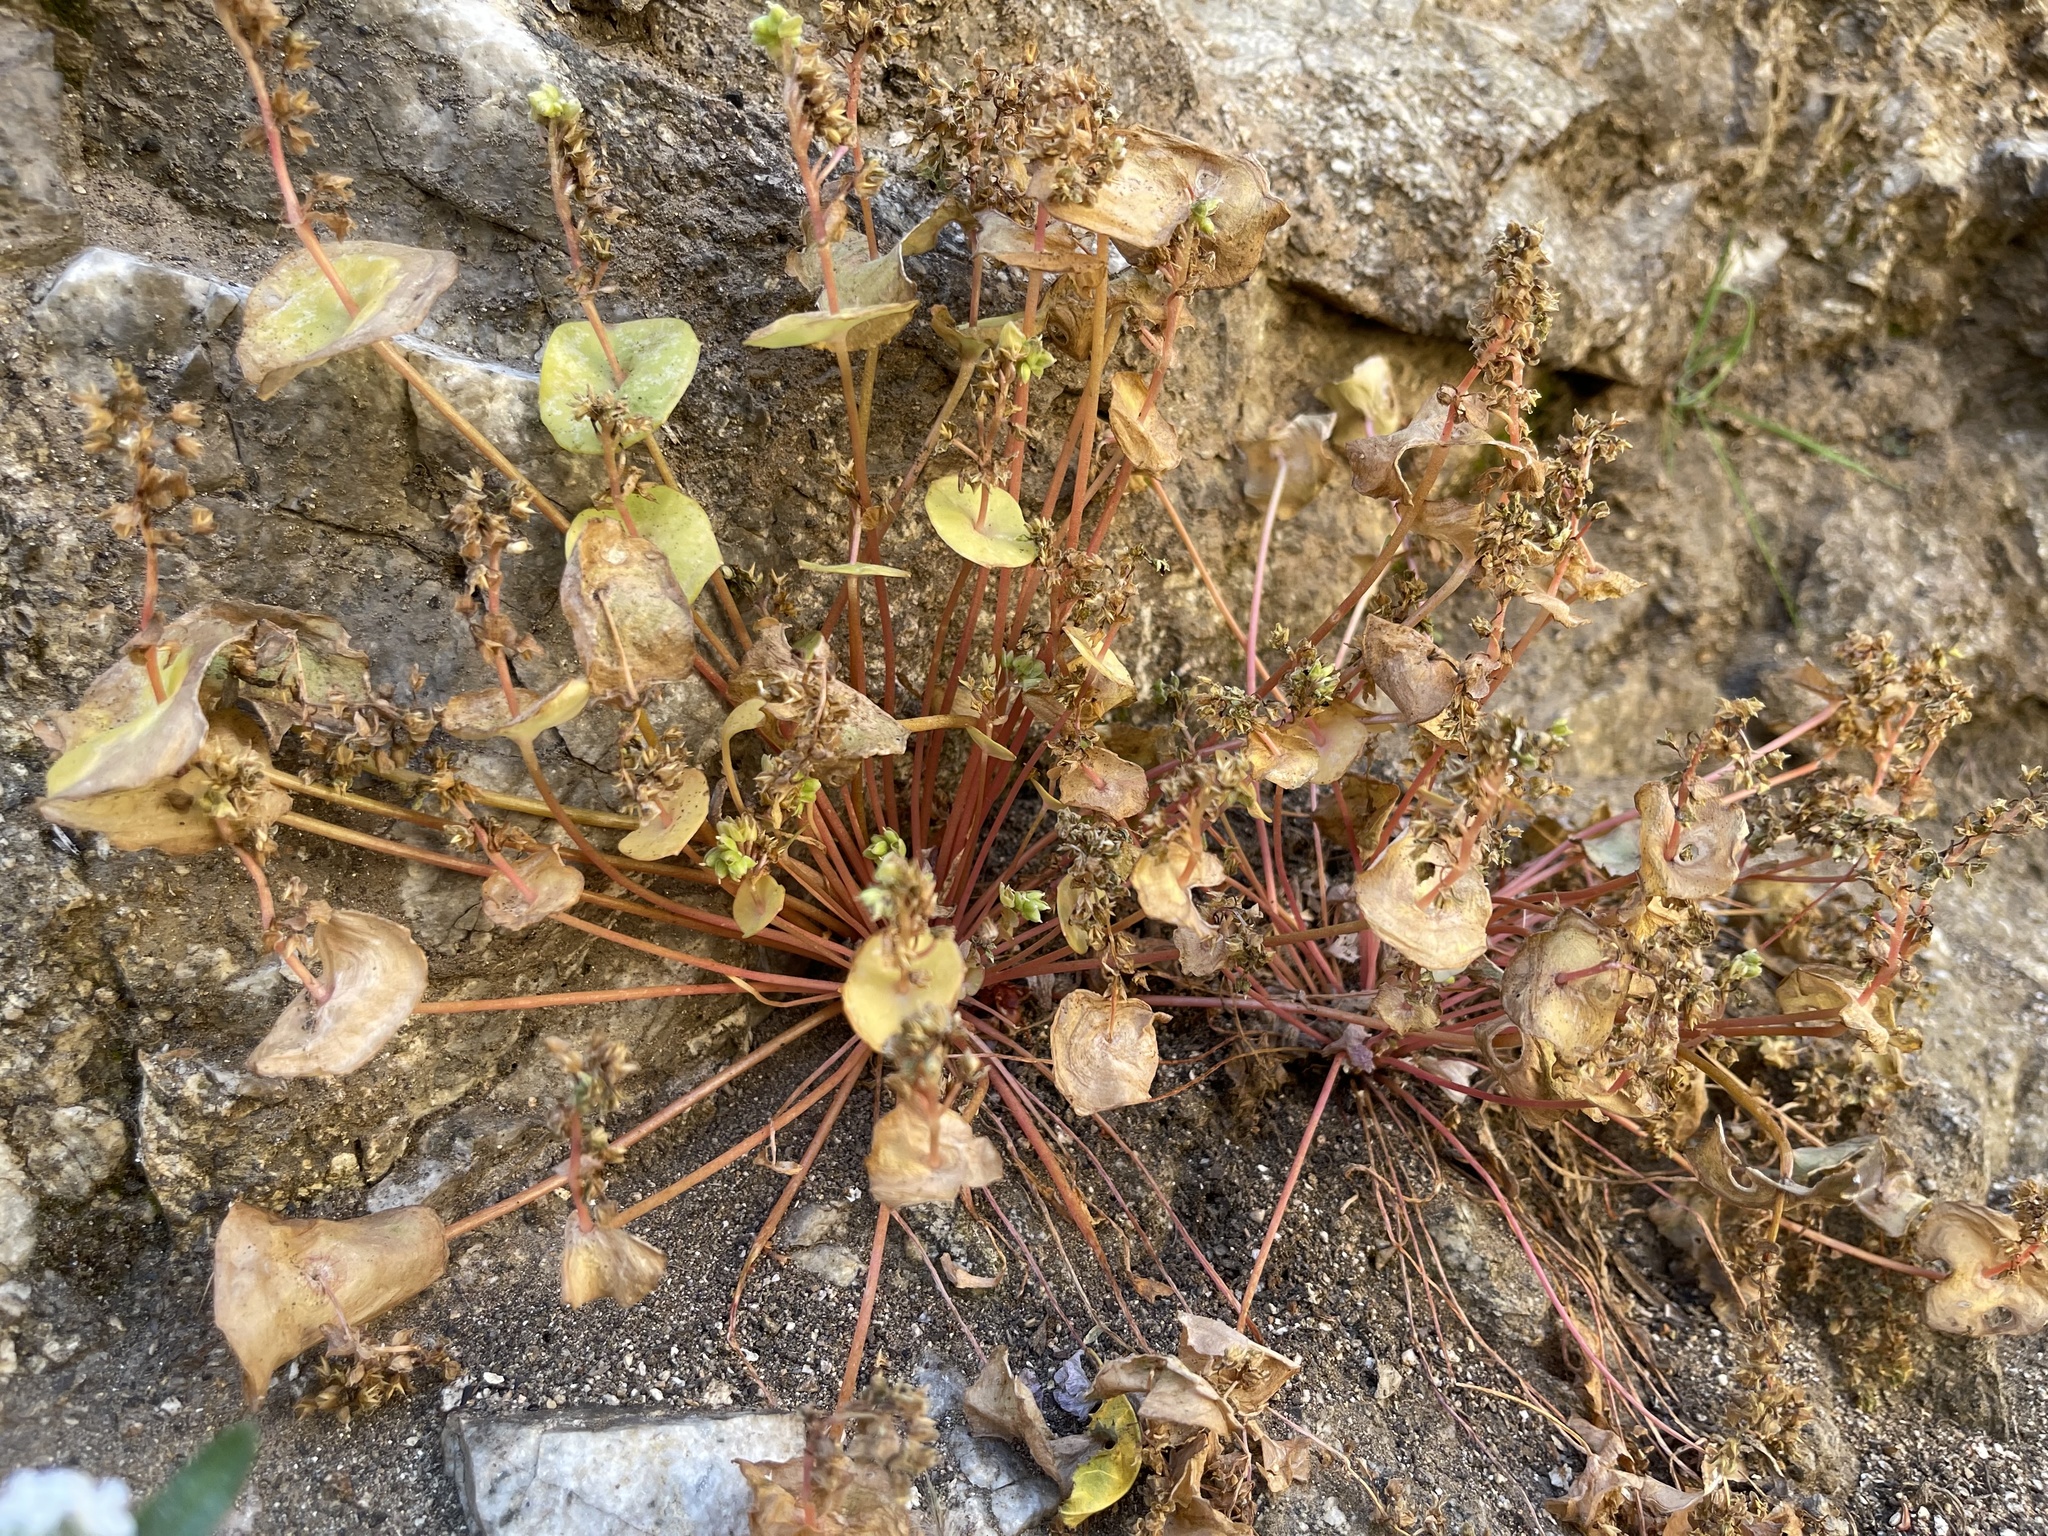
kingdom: Plantae
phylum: Tracheophyta
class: Magnoliopsida
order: Caryophyllales
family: Montiaceae
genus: Claytonia
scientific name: Claytonia perfoliata
